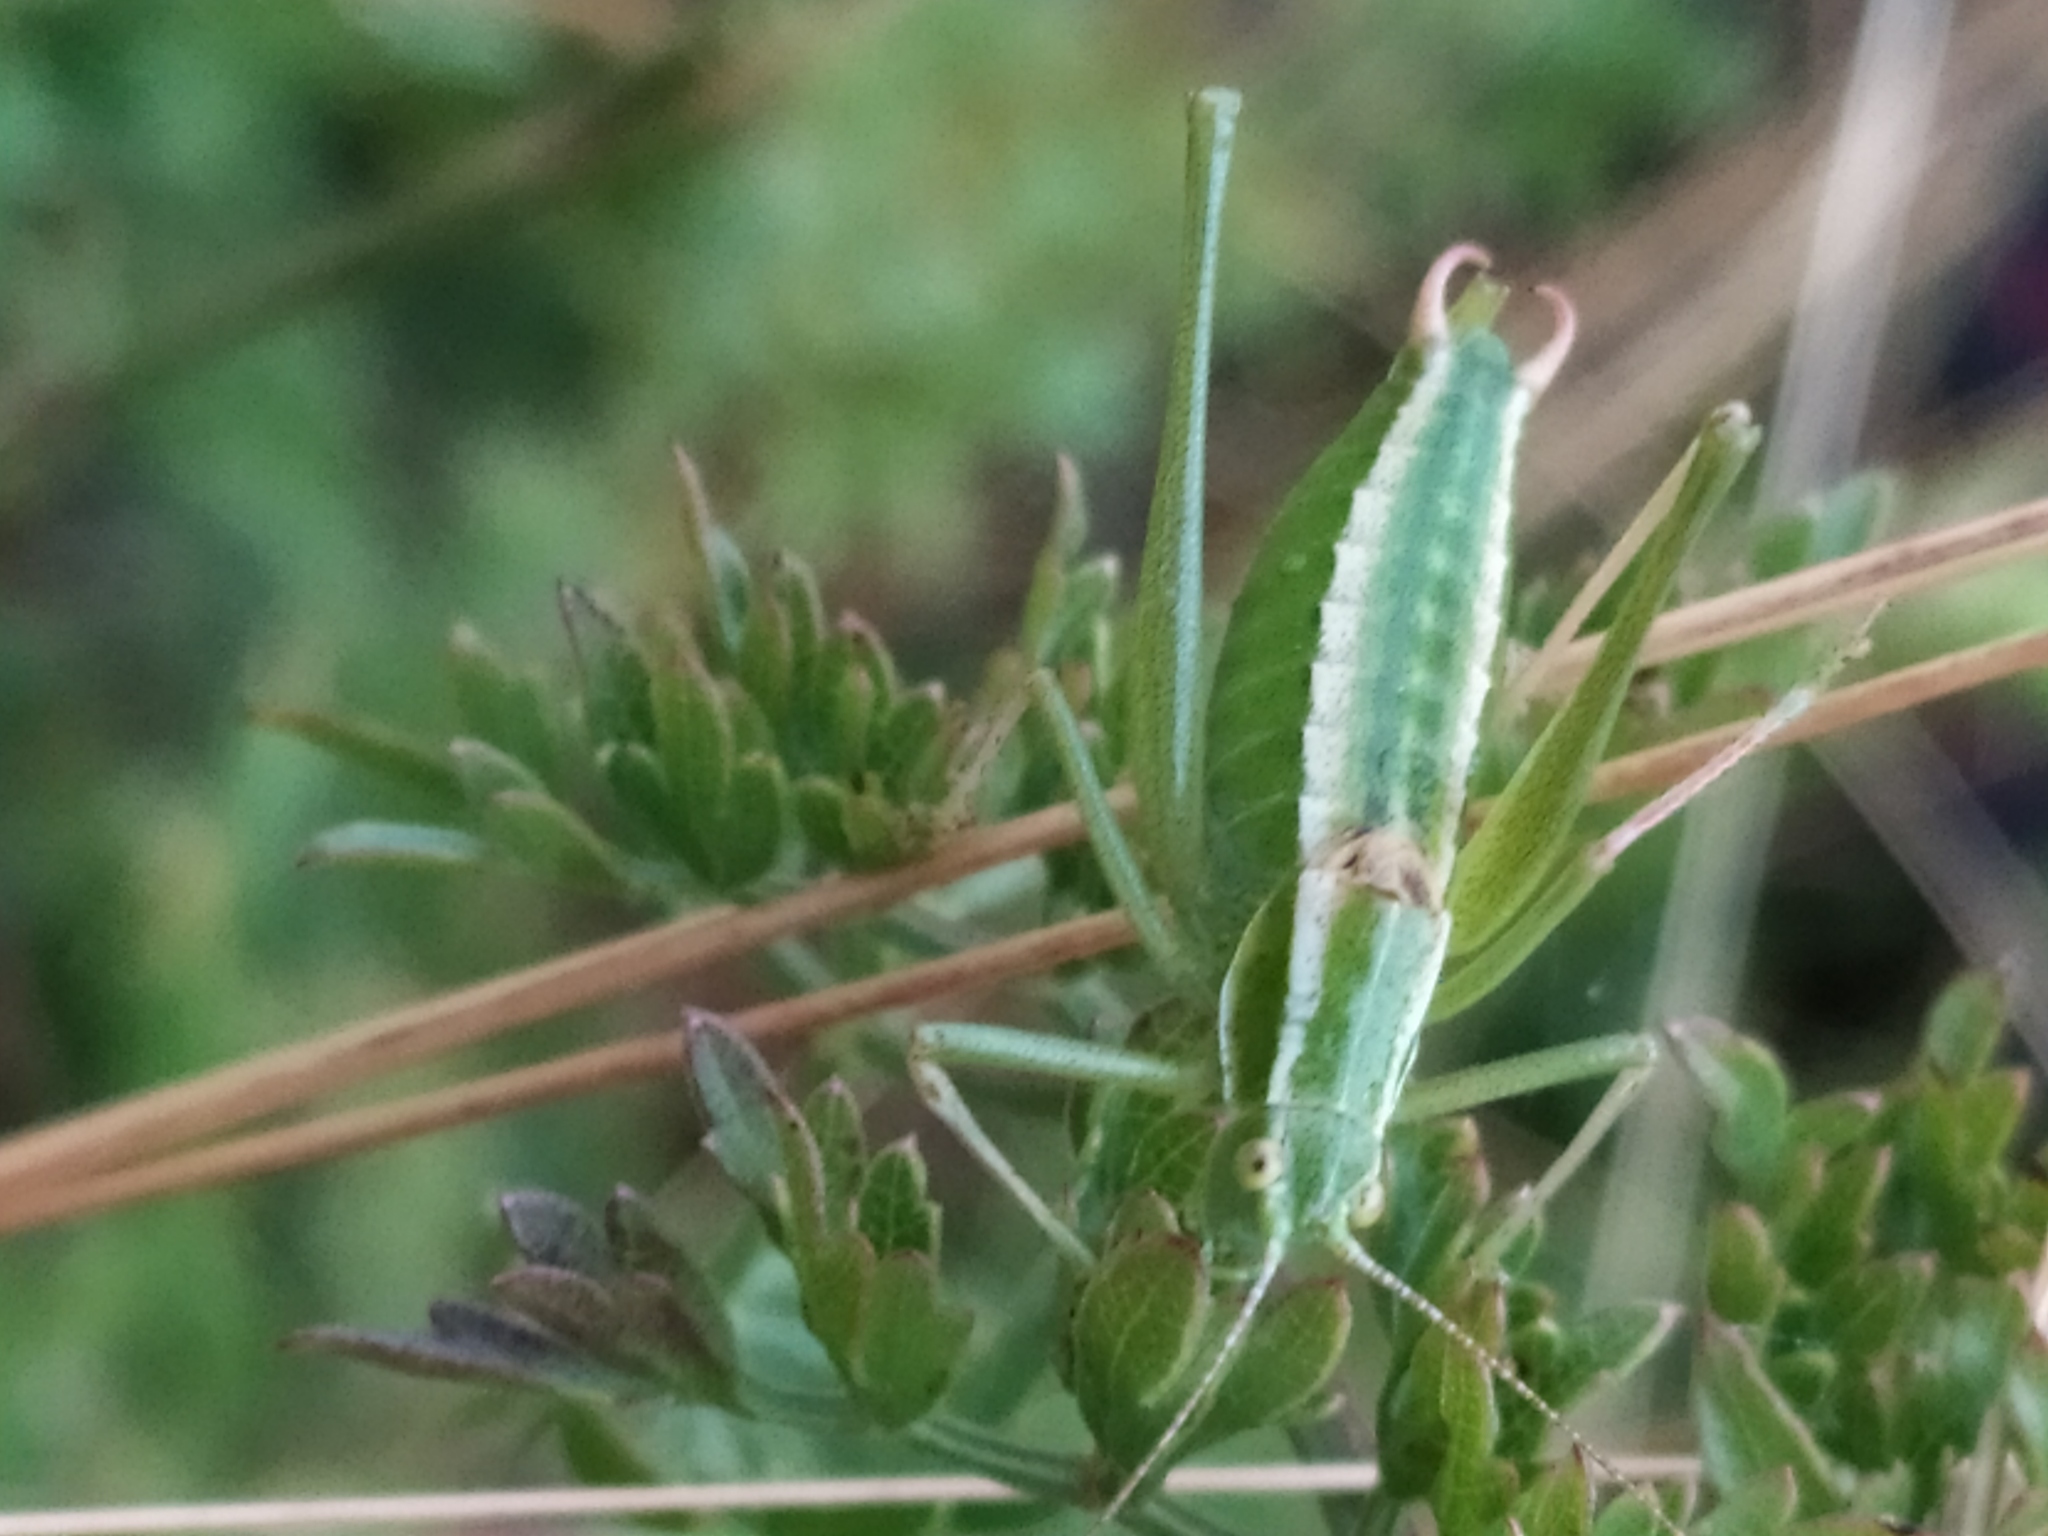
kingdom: Animalia
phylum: Arthropoda
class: Insecta
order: Orthoptera
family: Tettigoniidae
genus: Poecilimon
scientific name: Poecilimon elegans
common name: Elegant bright bush-cricket
